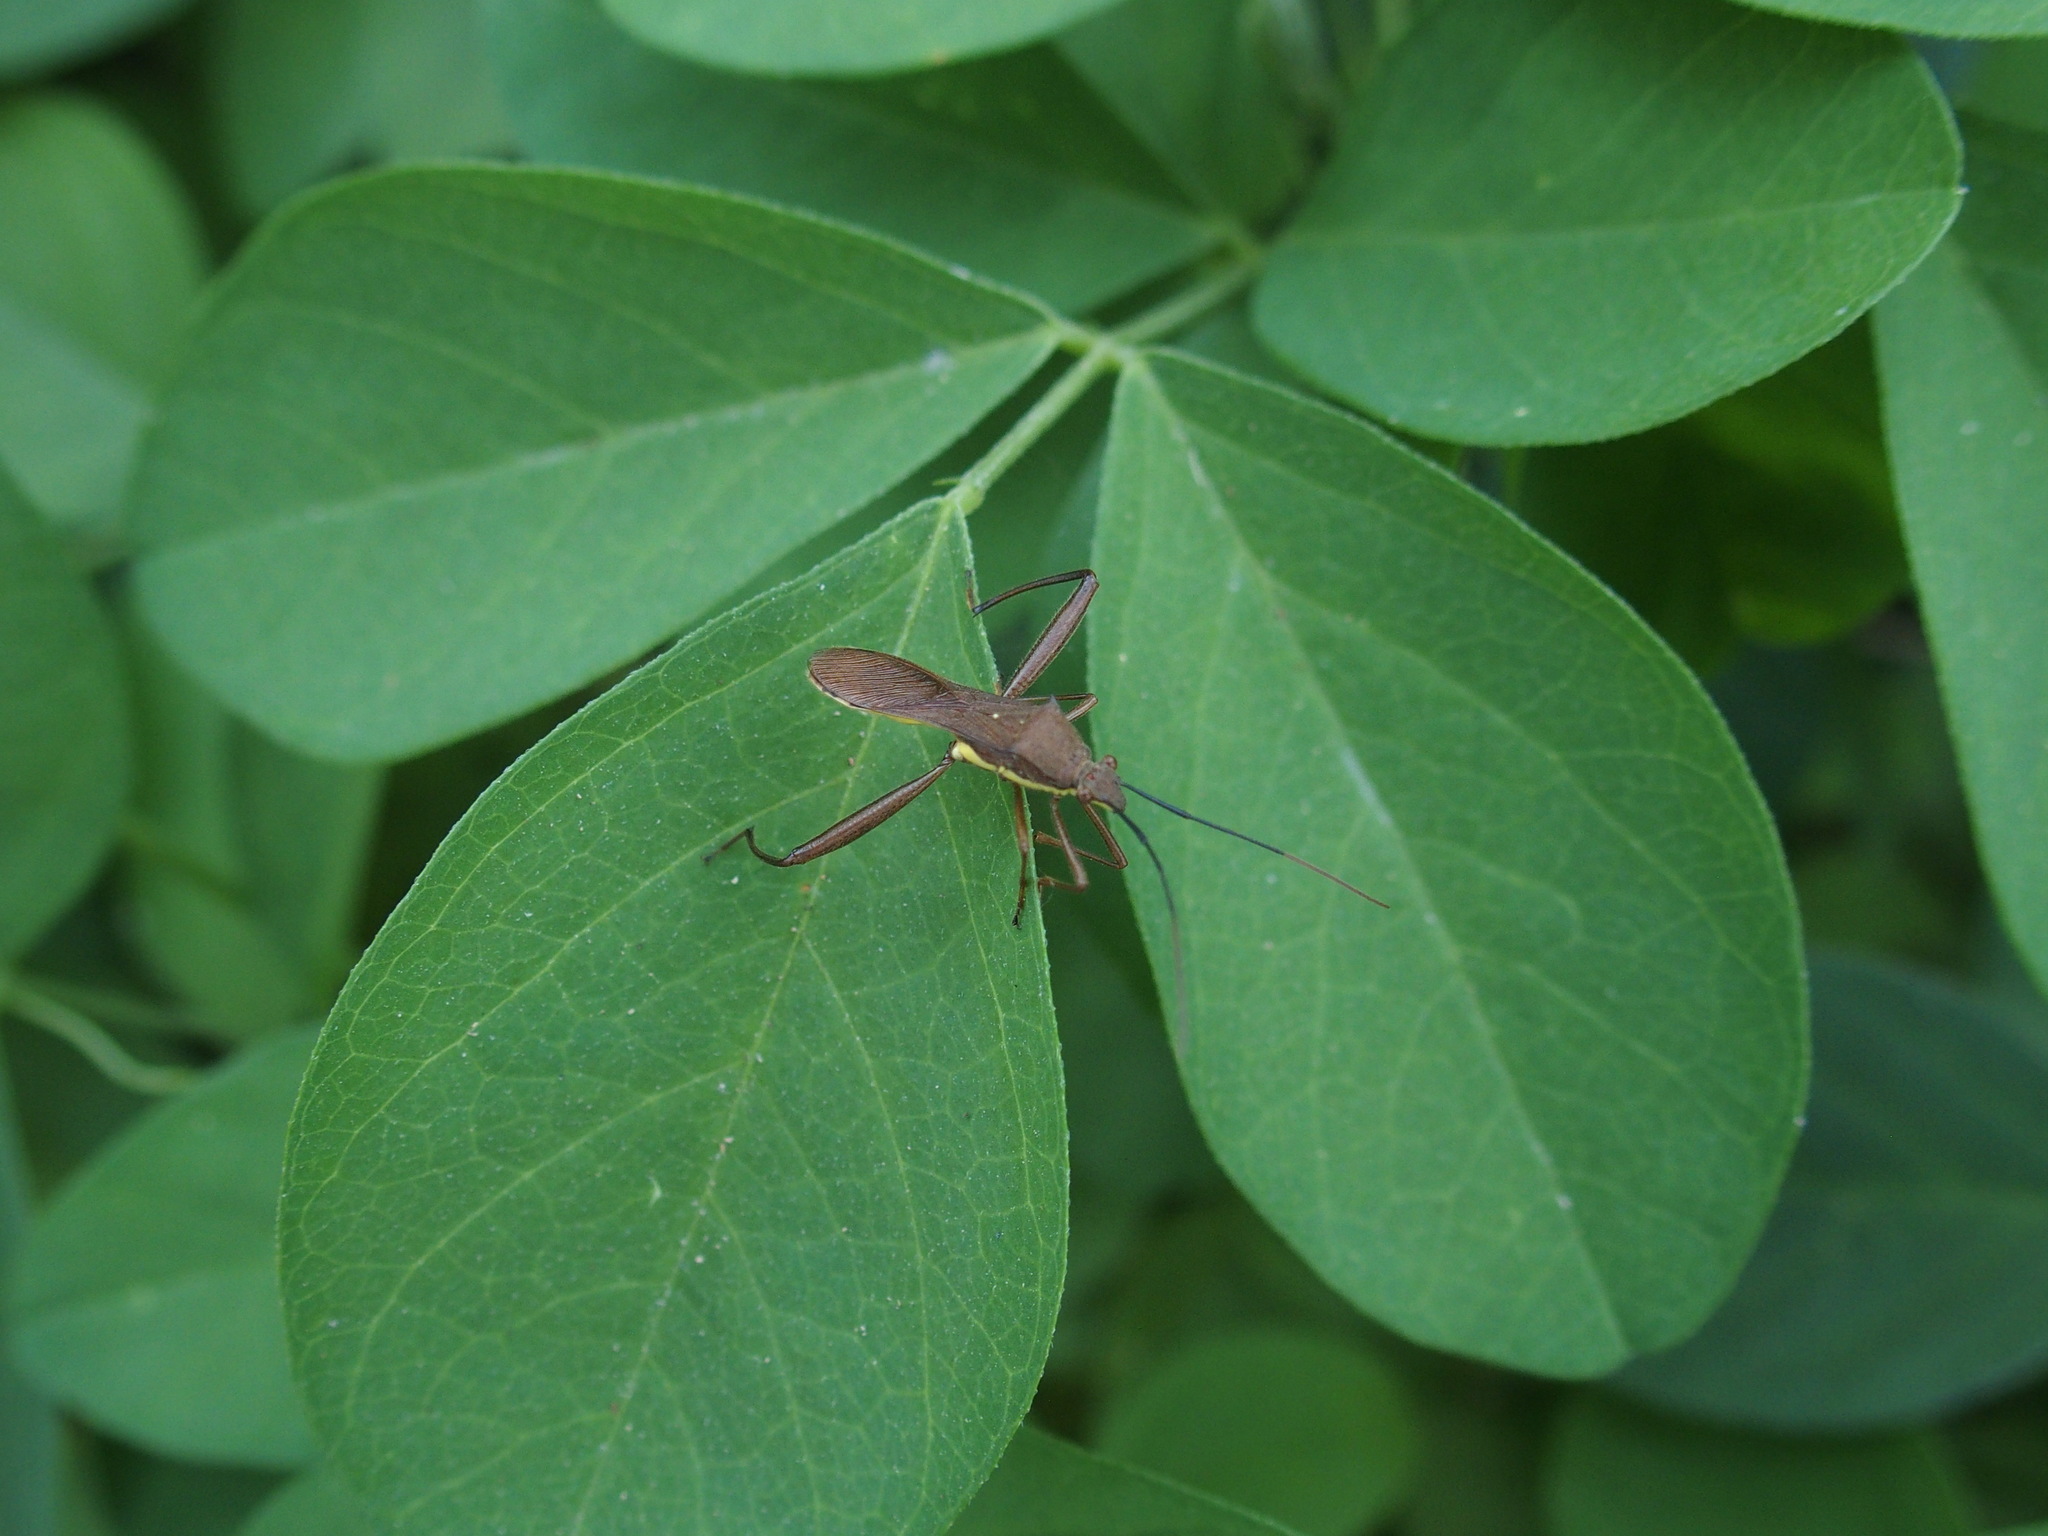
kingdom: Animalia
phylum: Arthropoda
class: Insecta
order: Hemiptera
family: Alydidae
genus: Riptortus
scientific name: Riptortus linearis
